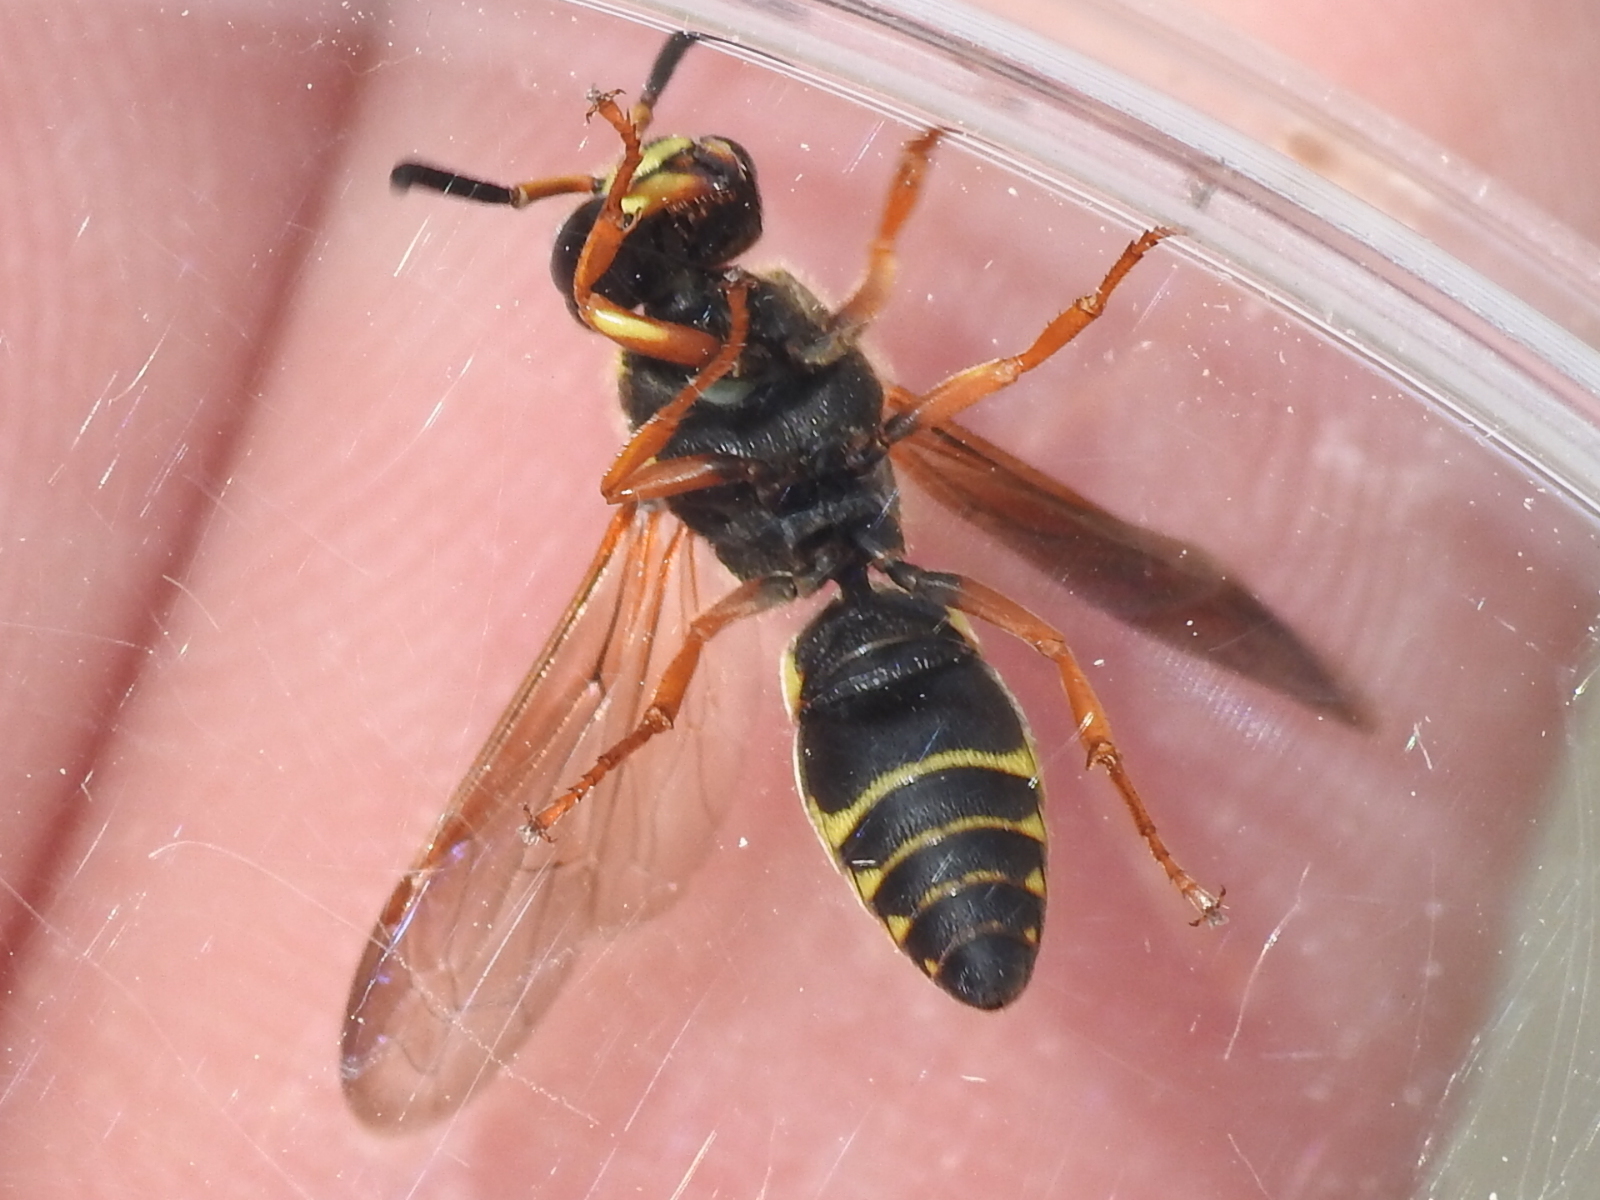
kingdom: Animalia
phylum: Arthropoda
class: Insecta
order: Hymenoptera
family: Eumenidae
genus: Euodynerus
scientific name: Euodynerus
